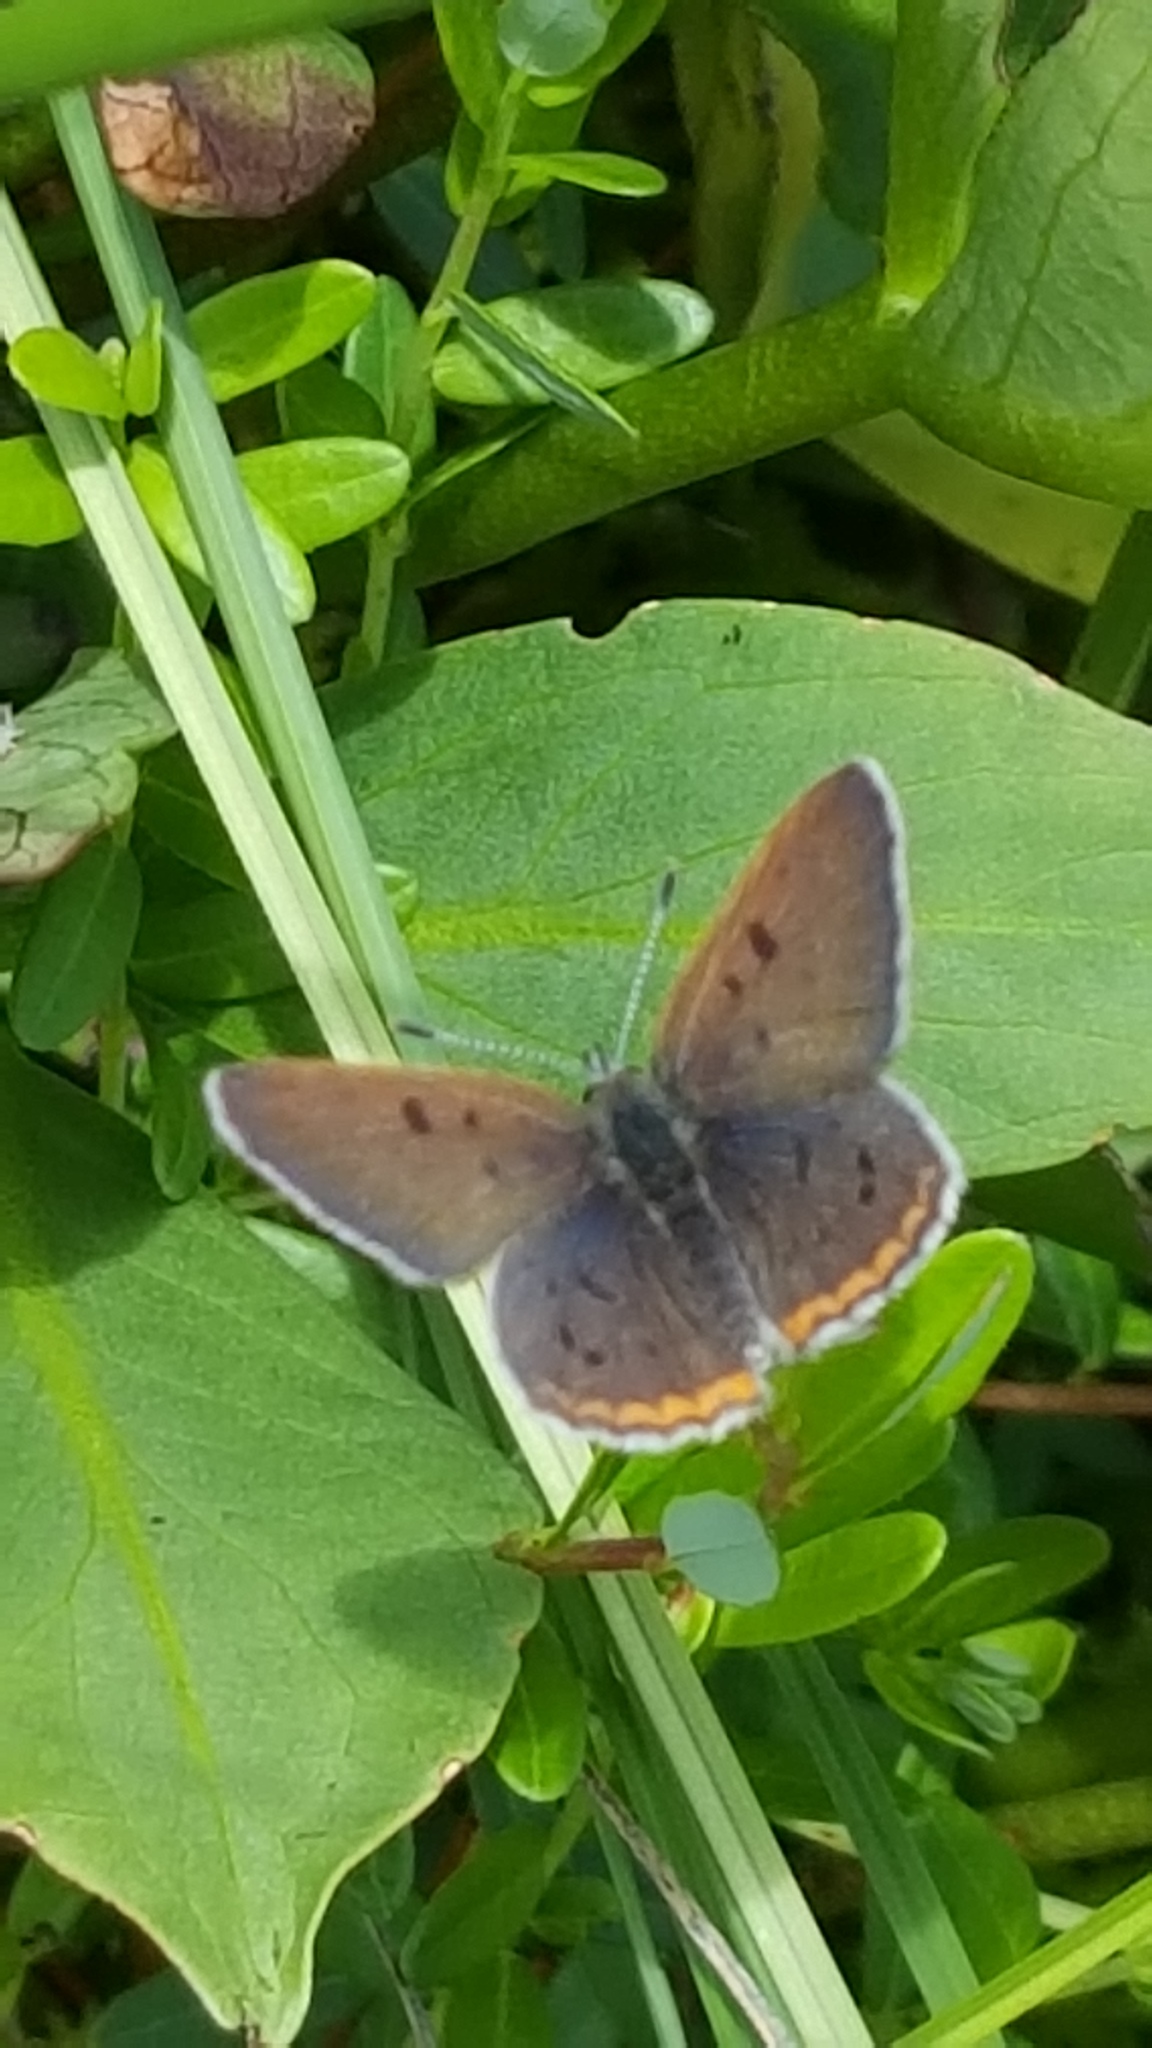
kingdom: Animalia
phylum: Arthropoda
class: Insecta
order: Lepidoptera
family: Lycaenidae
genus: Tharsalea
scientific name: Tharsalea epixanthe
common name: Bog copper
